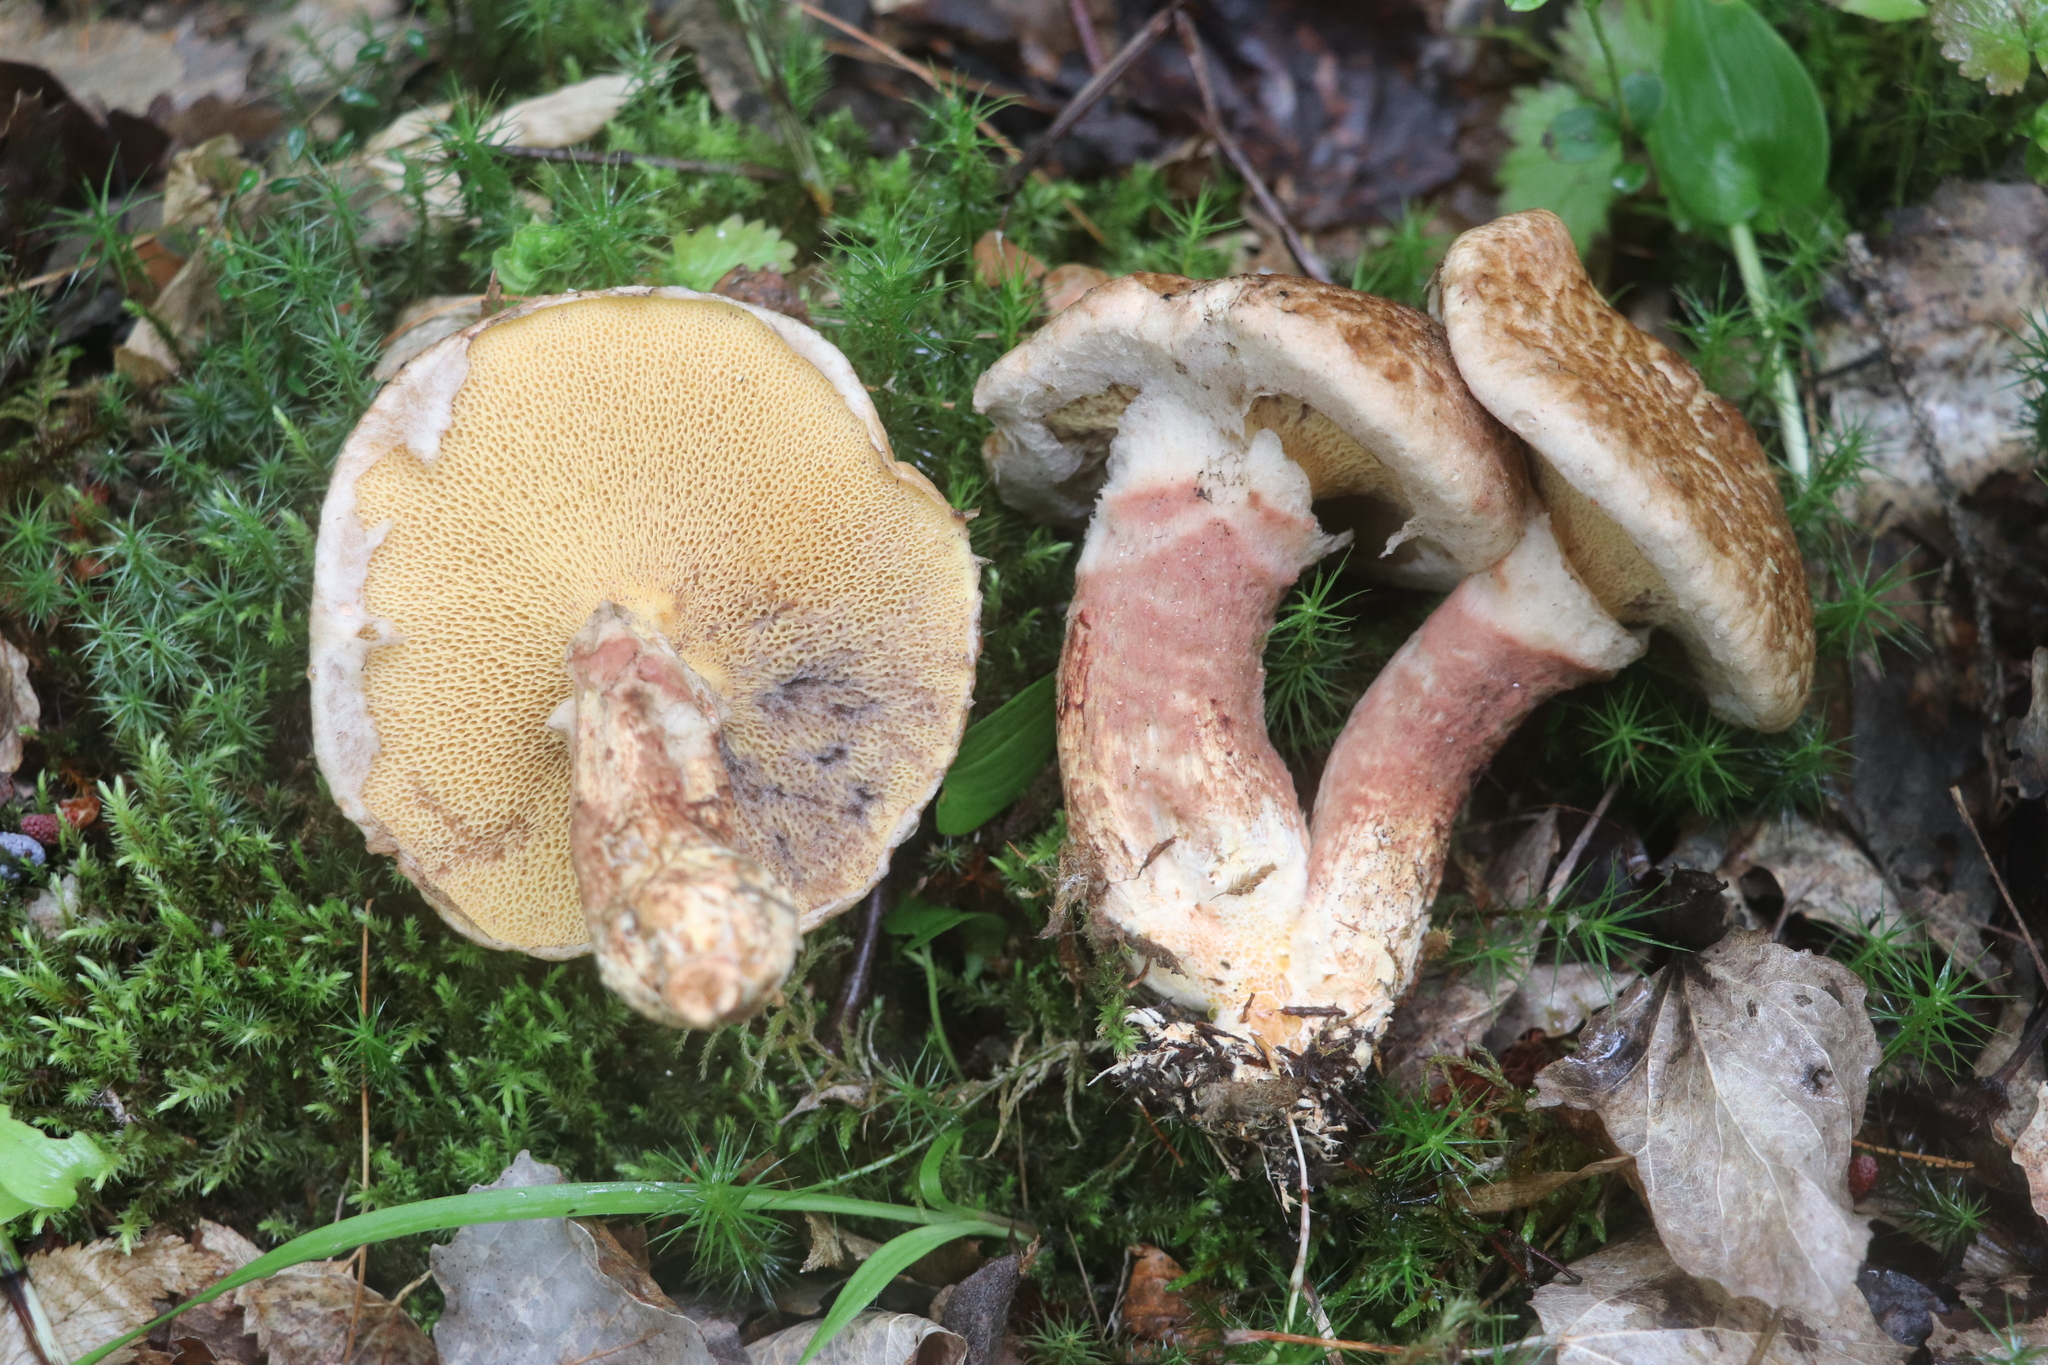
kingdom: Fungi
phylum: Basidiomycota
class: Agaricomycetes
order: Boletales
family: Suillaceae
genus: Suillus
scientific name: Suillus spraguei
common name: Painted suillus
